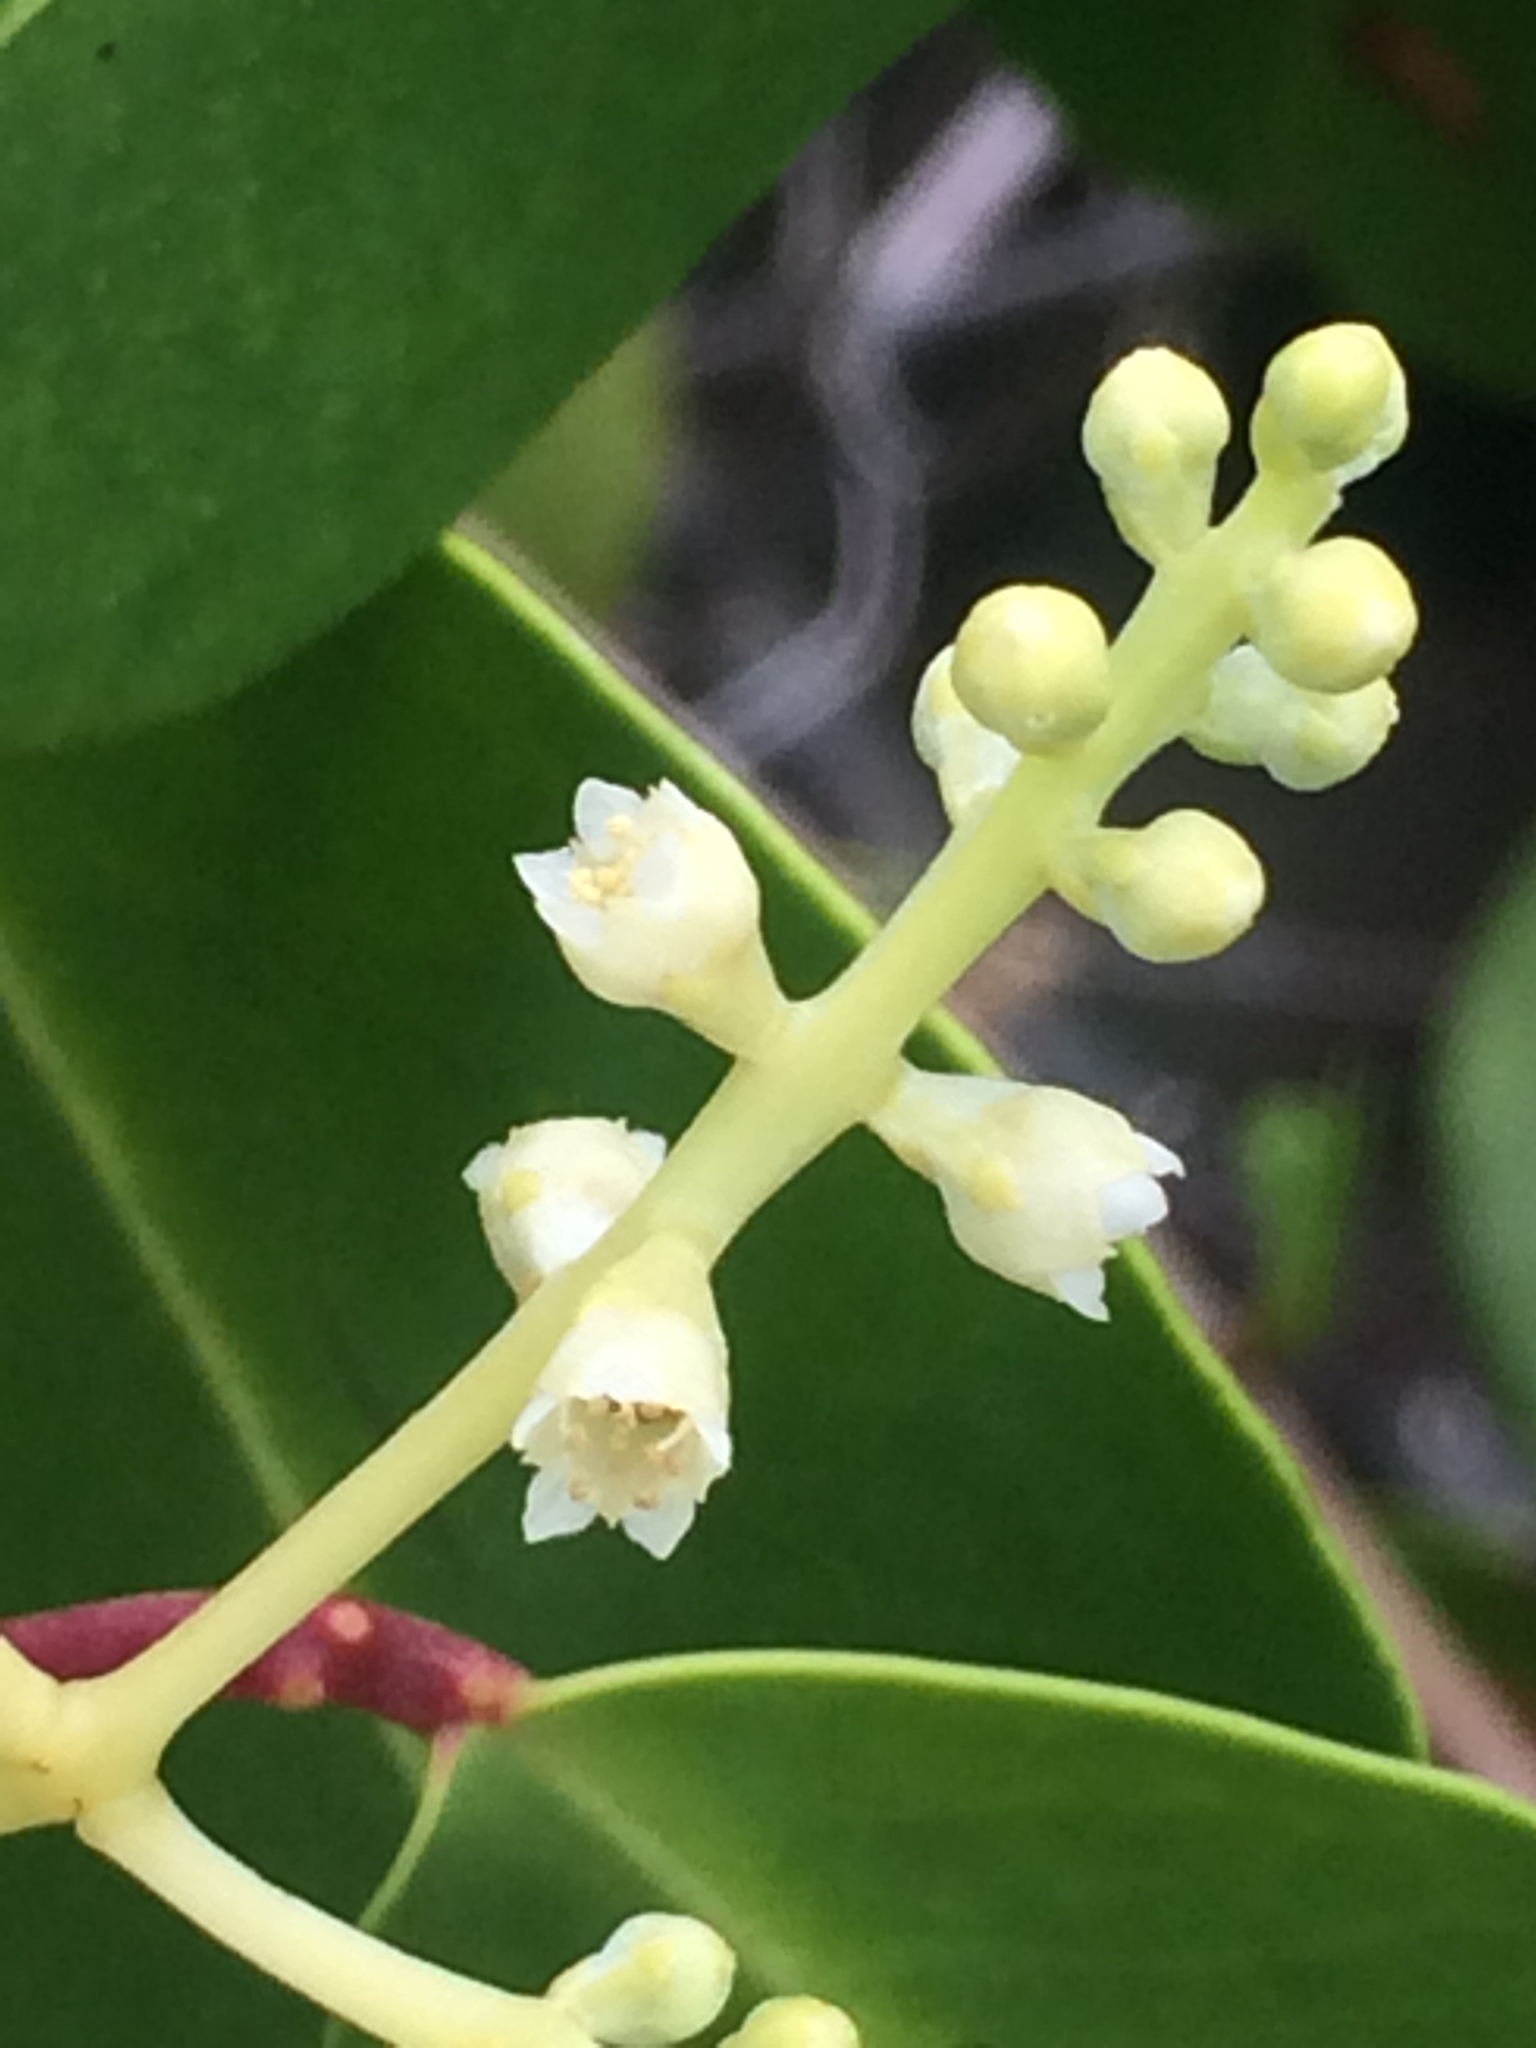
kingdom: Plantae
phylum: Tracheophyta
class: Magnoliopsida
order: Myrtales
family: Combretaceae
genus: Laguncularia
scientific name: Laguncularia racemosa
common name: White mangrove
